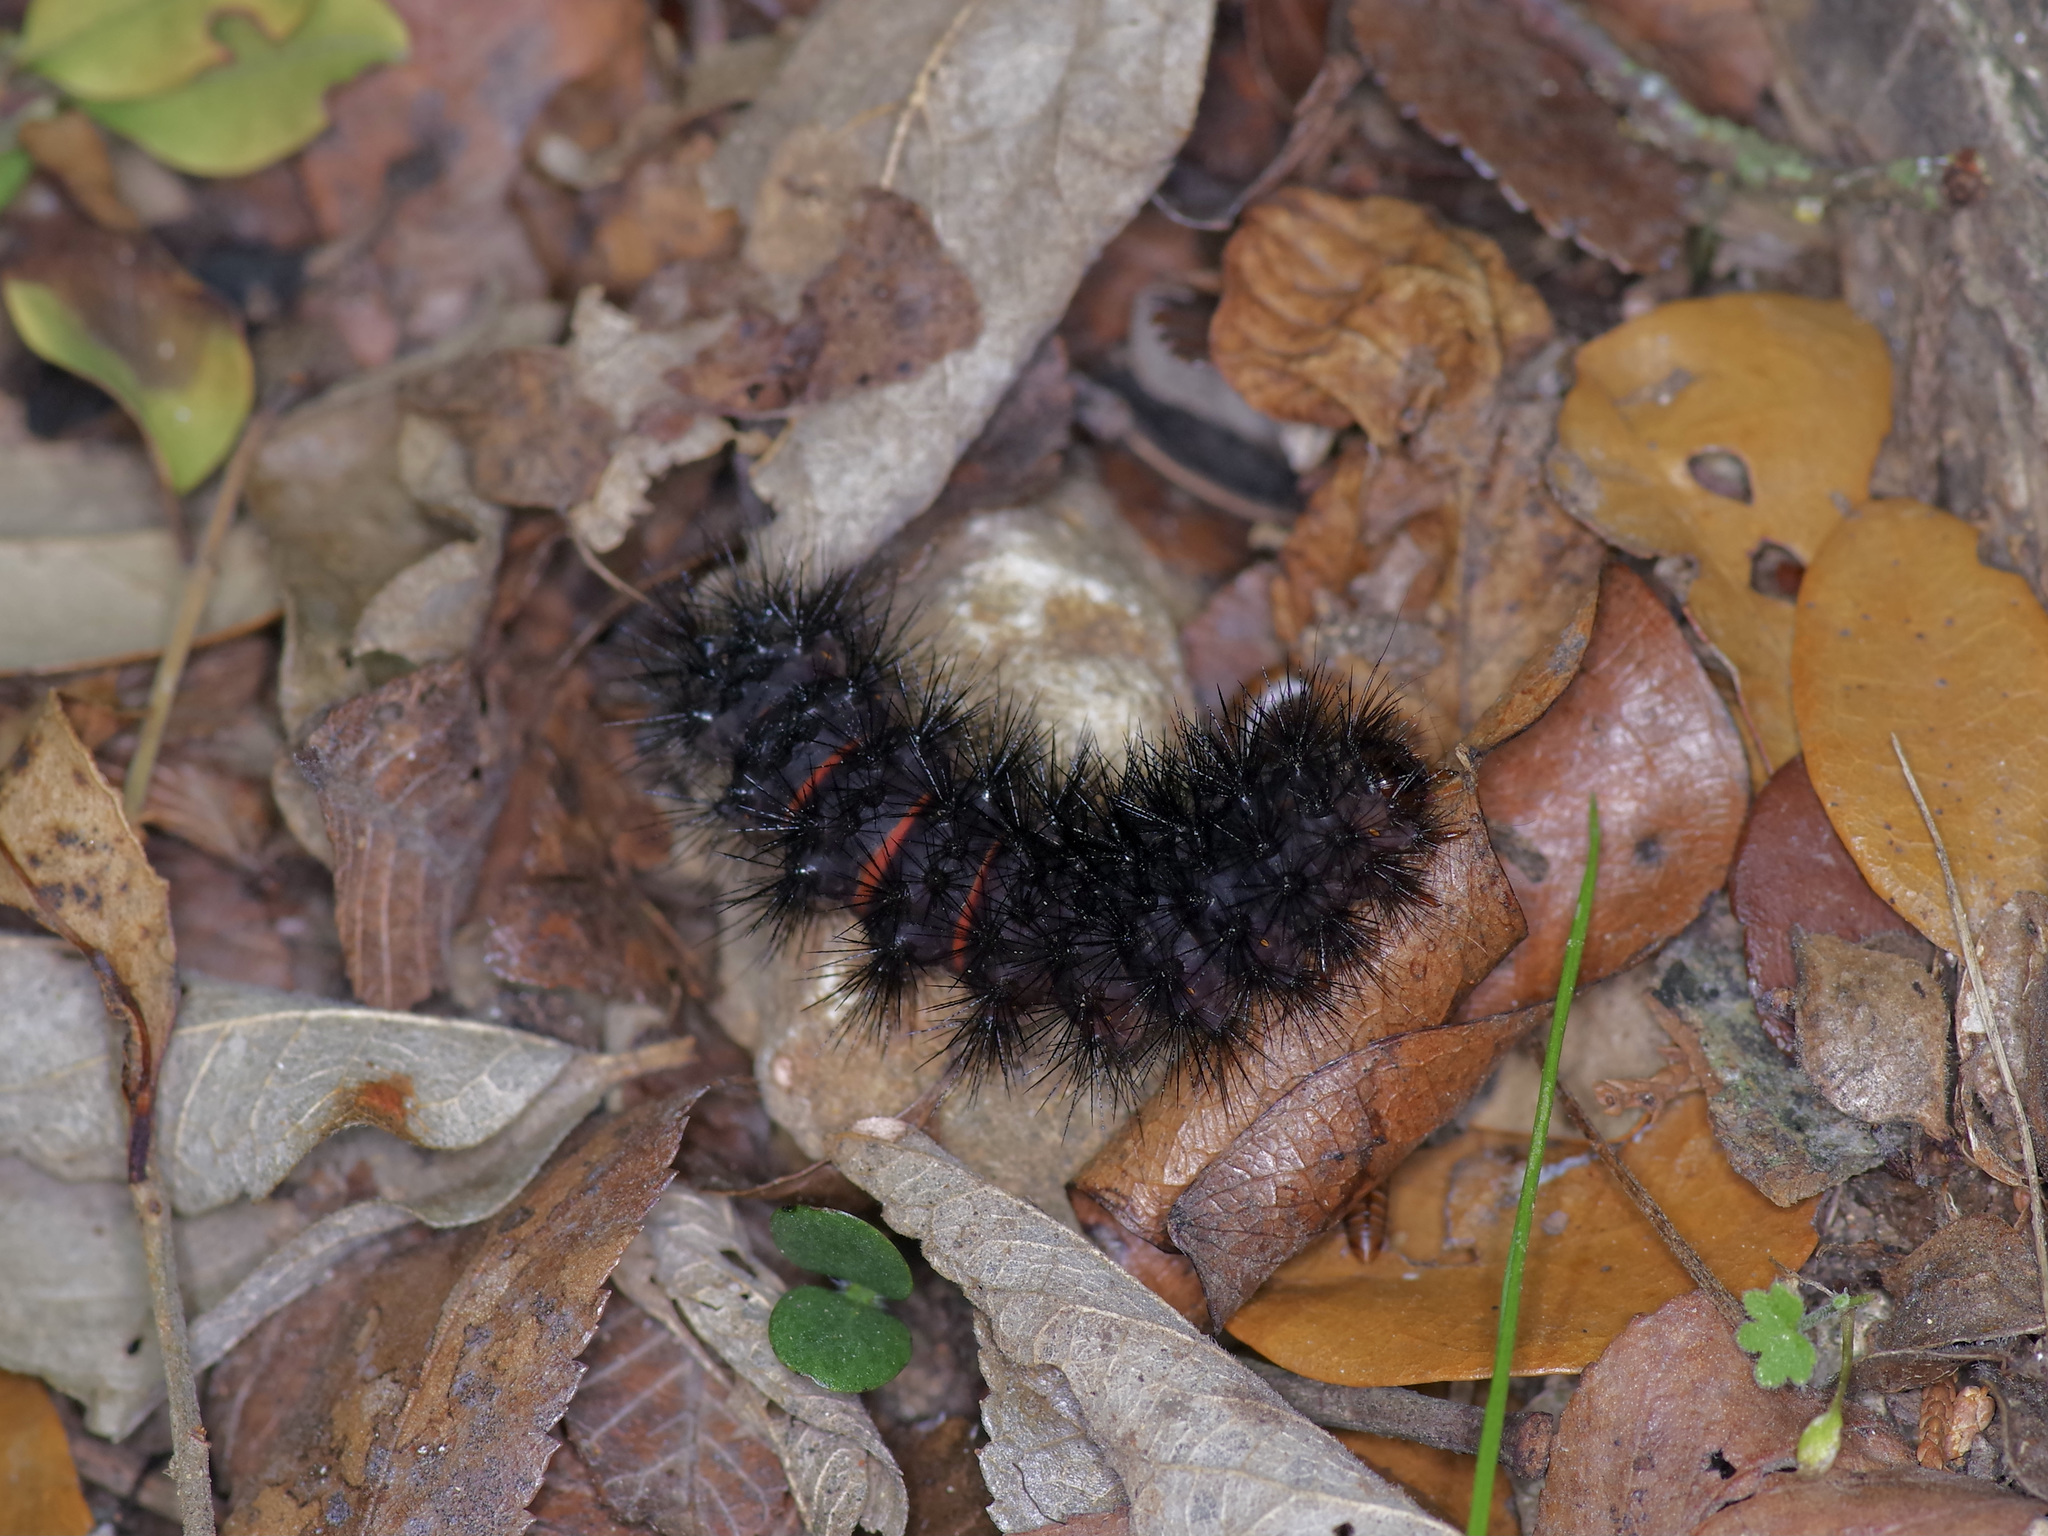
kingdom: Animalia
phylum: Arthropoda
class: Insecta
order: Lepidoptera
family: Erebidae
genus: Hypercompe
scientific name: Hypercompe scribonia
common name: Giant leopard moth
